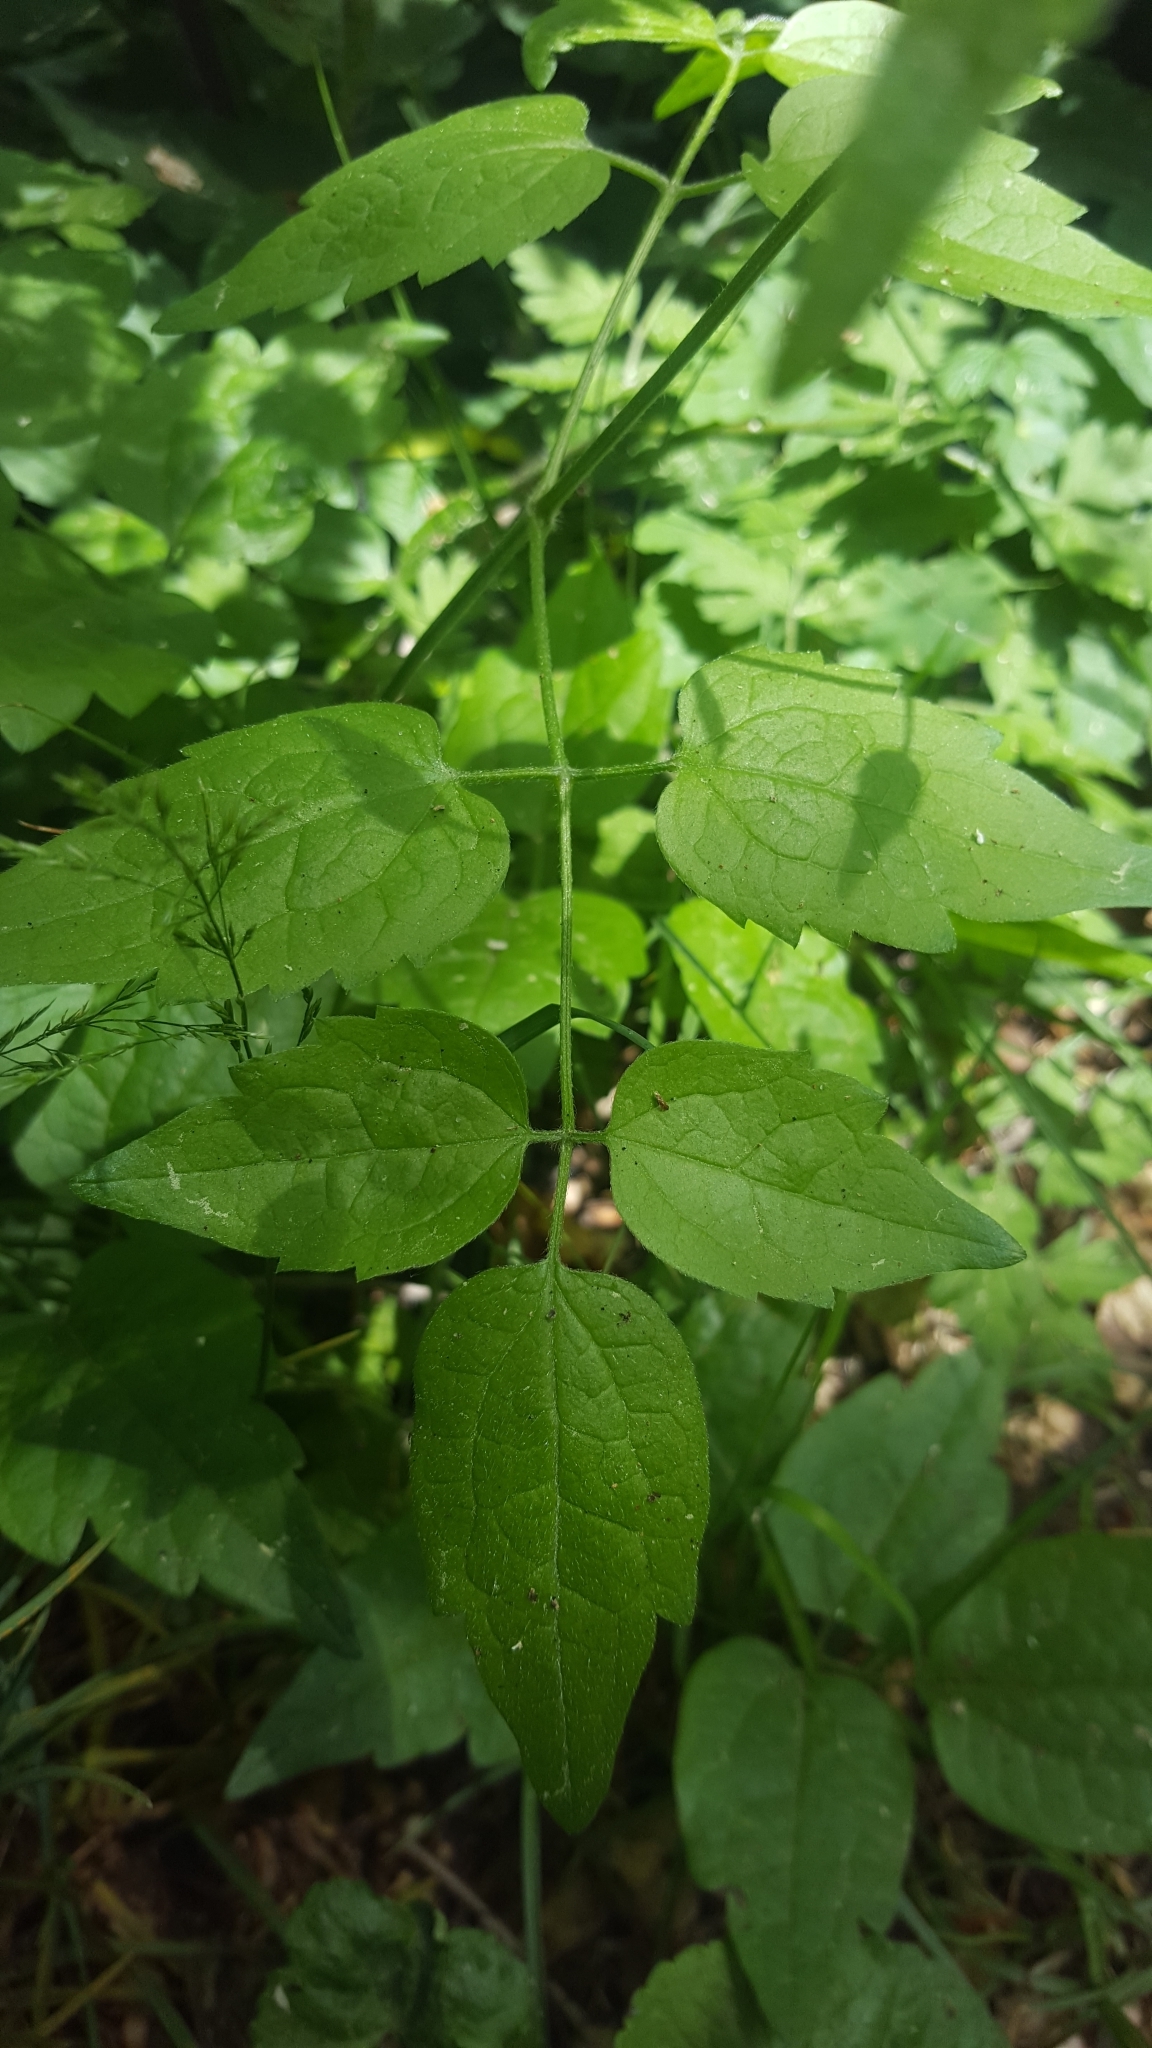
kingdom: Plantae
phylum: Tracheophyta
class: Magnoliopsida
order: Ranunculales
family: Ranunculaceae
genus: Clematis
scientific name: Clematis vitalba
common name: Evergreen clematis
